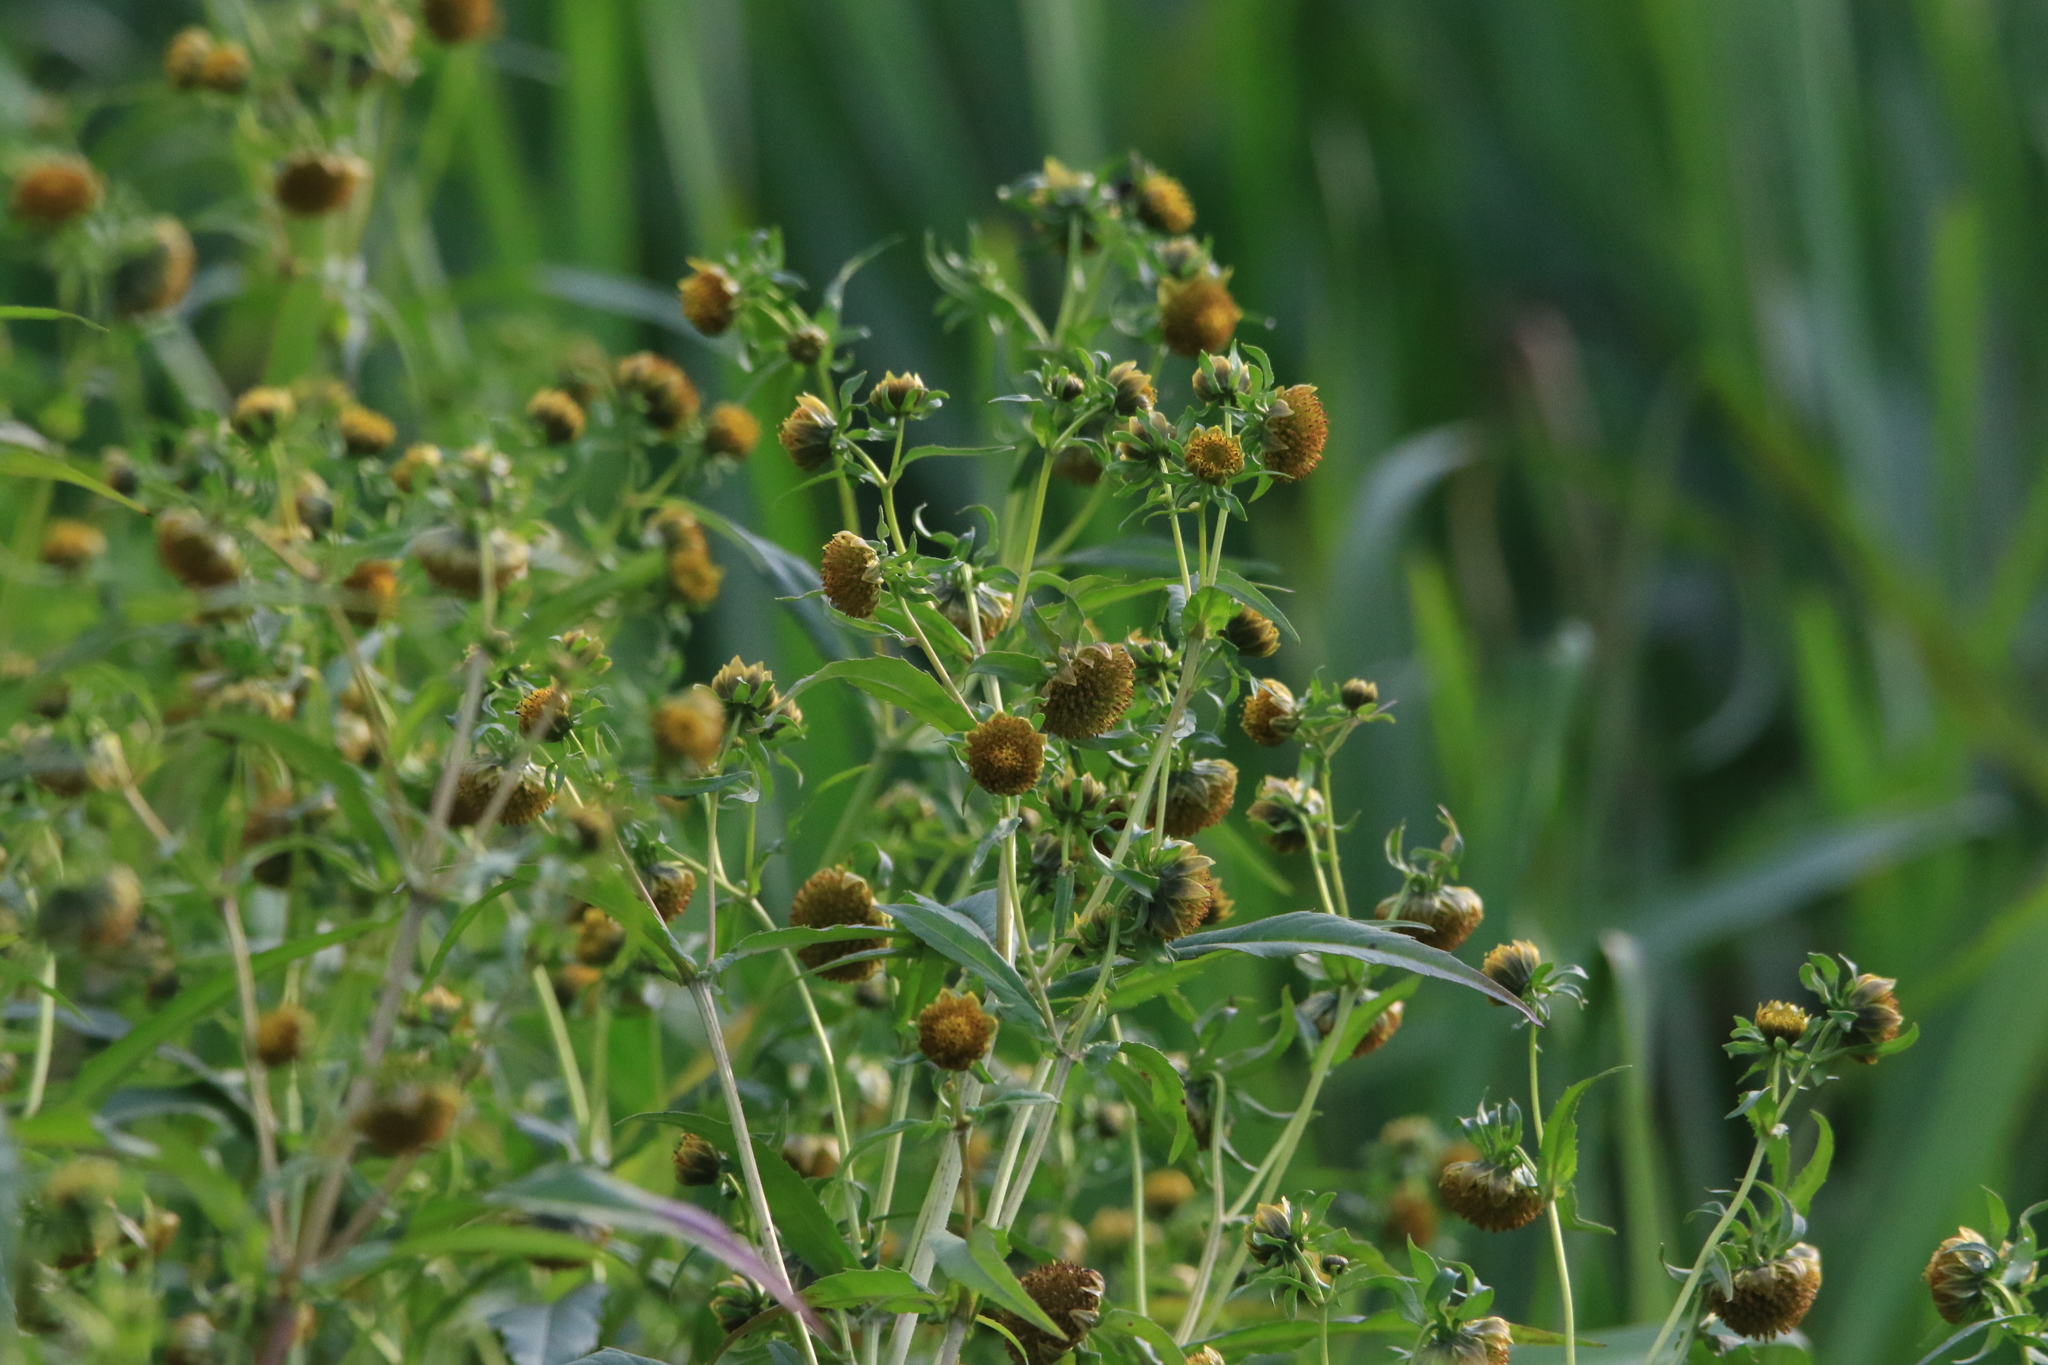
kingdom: Plantae
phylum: Tracheophyta
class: Magnoliopsida
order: Asterales
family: Asteraceae
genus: Bidens
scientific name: Bidens cernua
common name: Nodding bur-marigold
